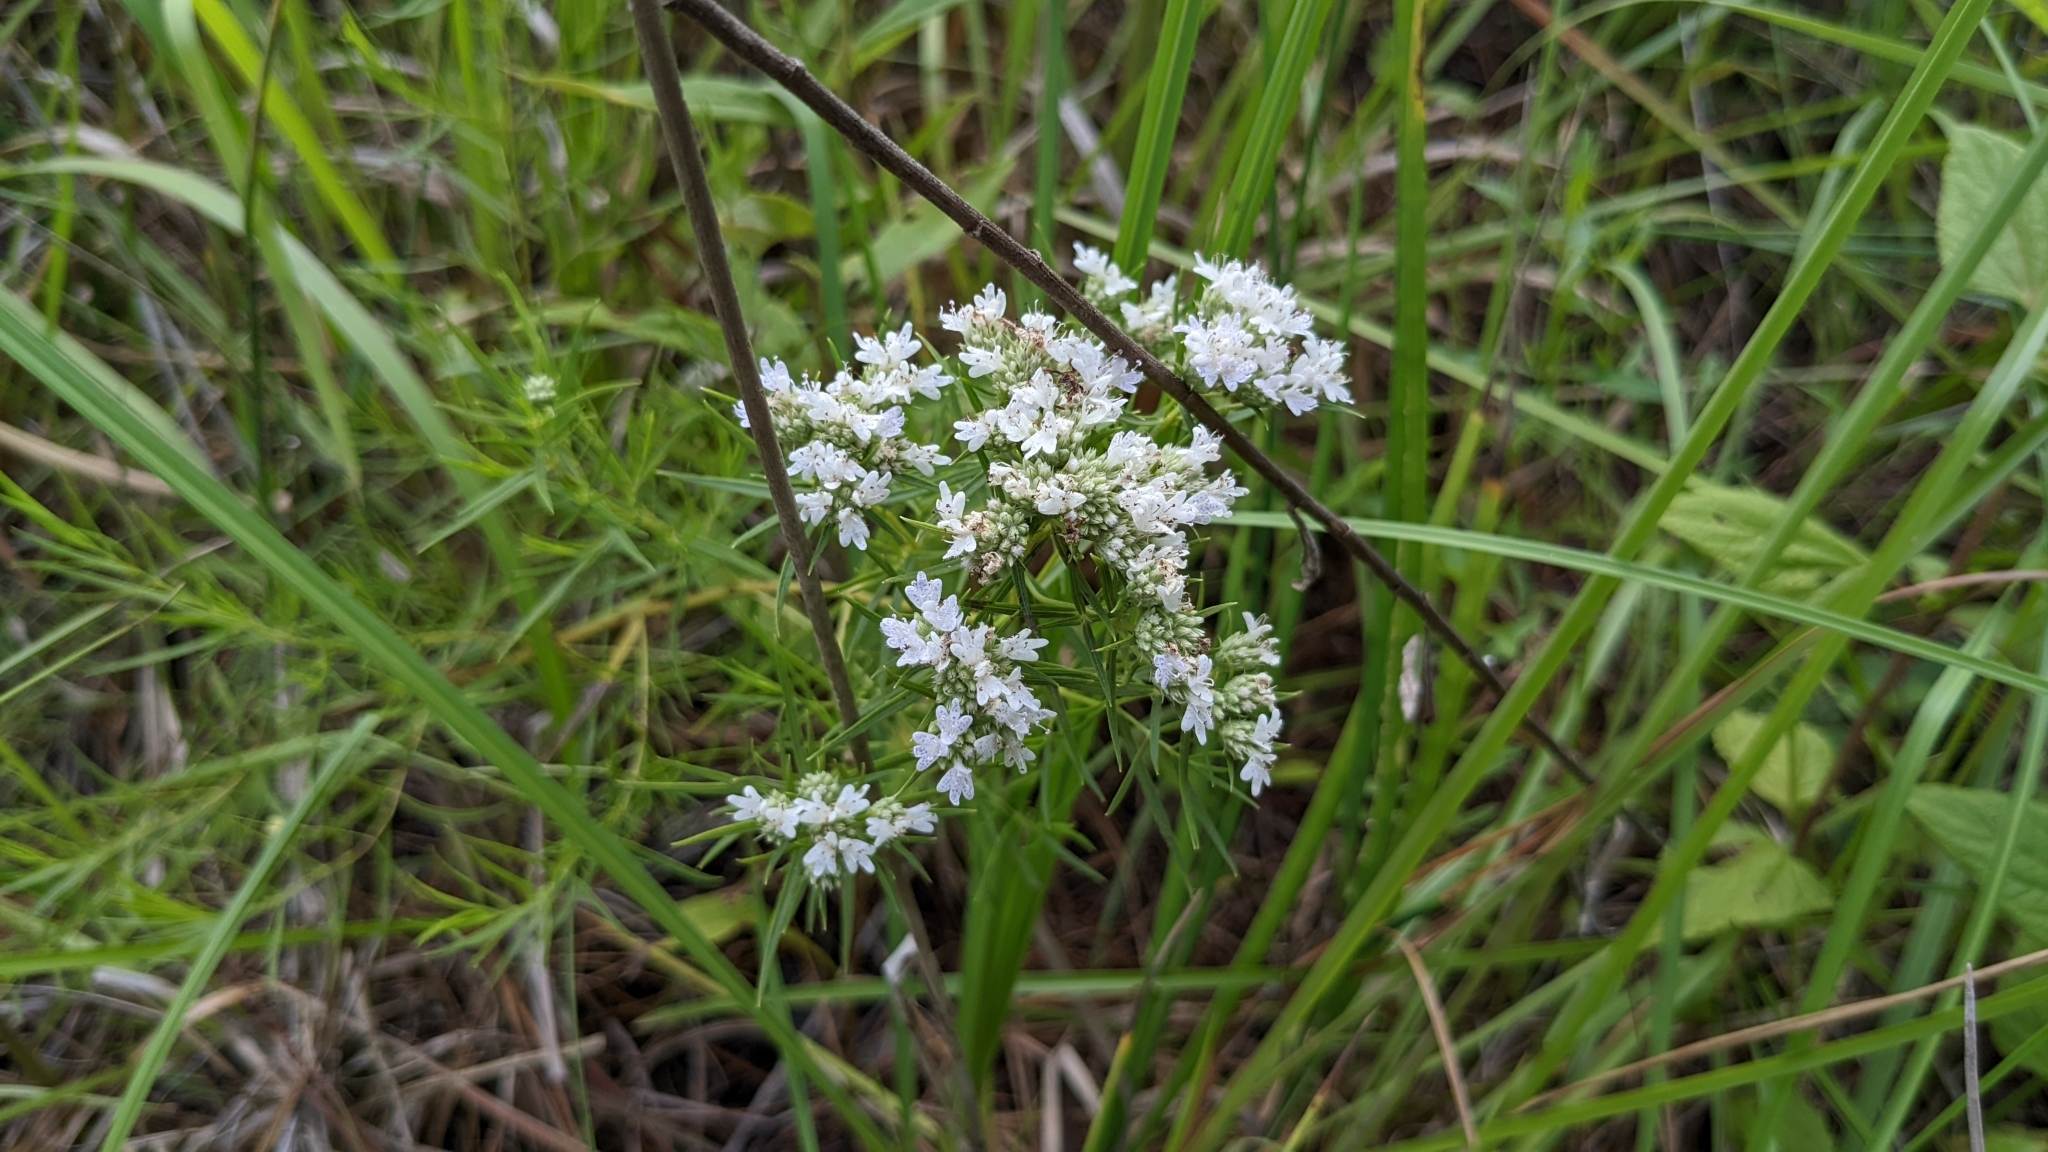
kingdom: Plantae
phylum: Tracheophyta
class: Magnoliopsida
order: Lamiales
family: Lamiaceae
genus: Pycnanthemum
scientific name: Pycnanthemum tenuifolium
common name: Narrow-leaf mountain-mint
